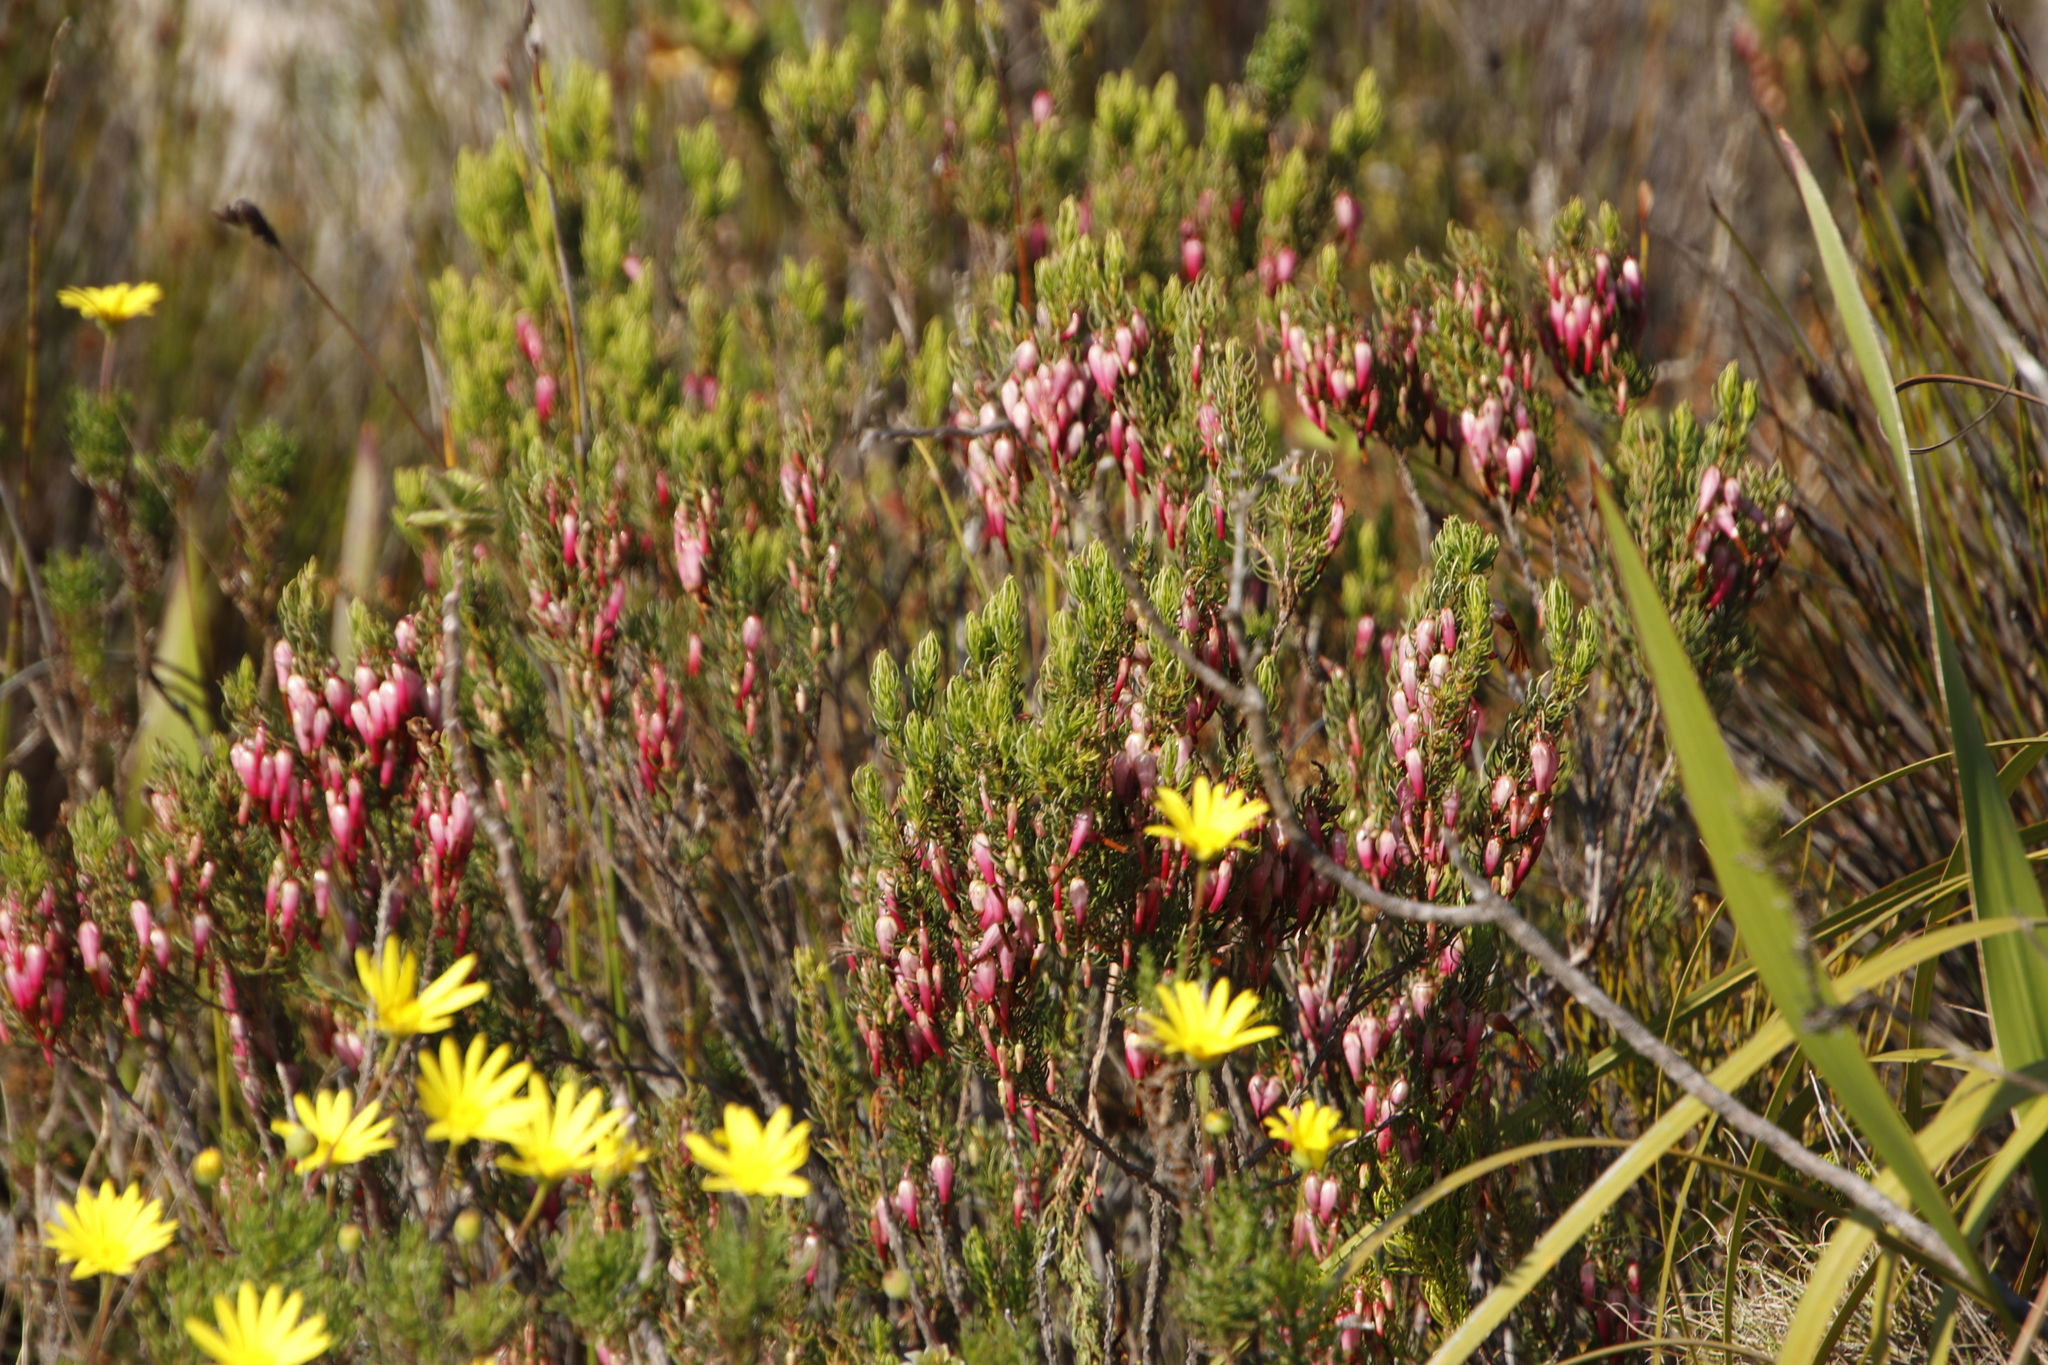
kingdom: Plantae
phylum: Tracheophyta
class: Magnoliopsida
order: Ericales
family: Ericaceae
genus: Erica
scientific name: Erica plukenetii
